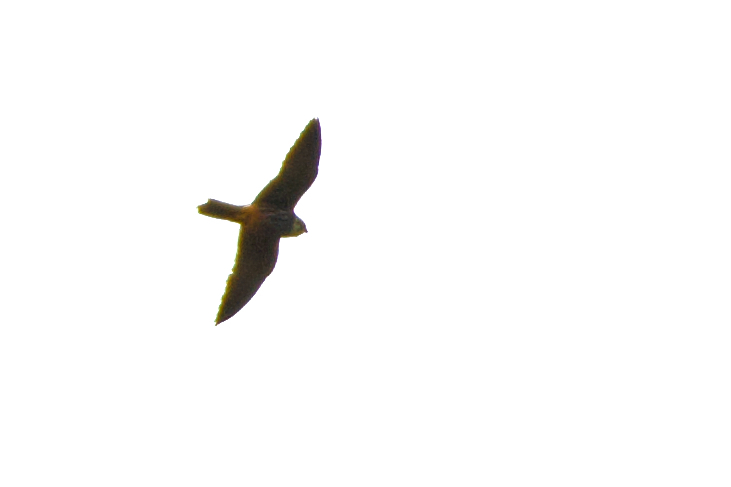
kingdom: Animalia
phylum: Chordata
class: Aves
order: Falconiformes
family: Falconidae
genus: Falco
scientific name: Falco subbuteo
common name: Eurasian hobby
